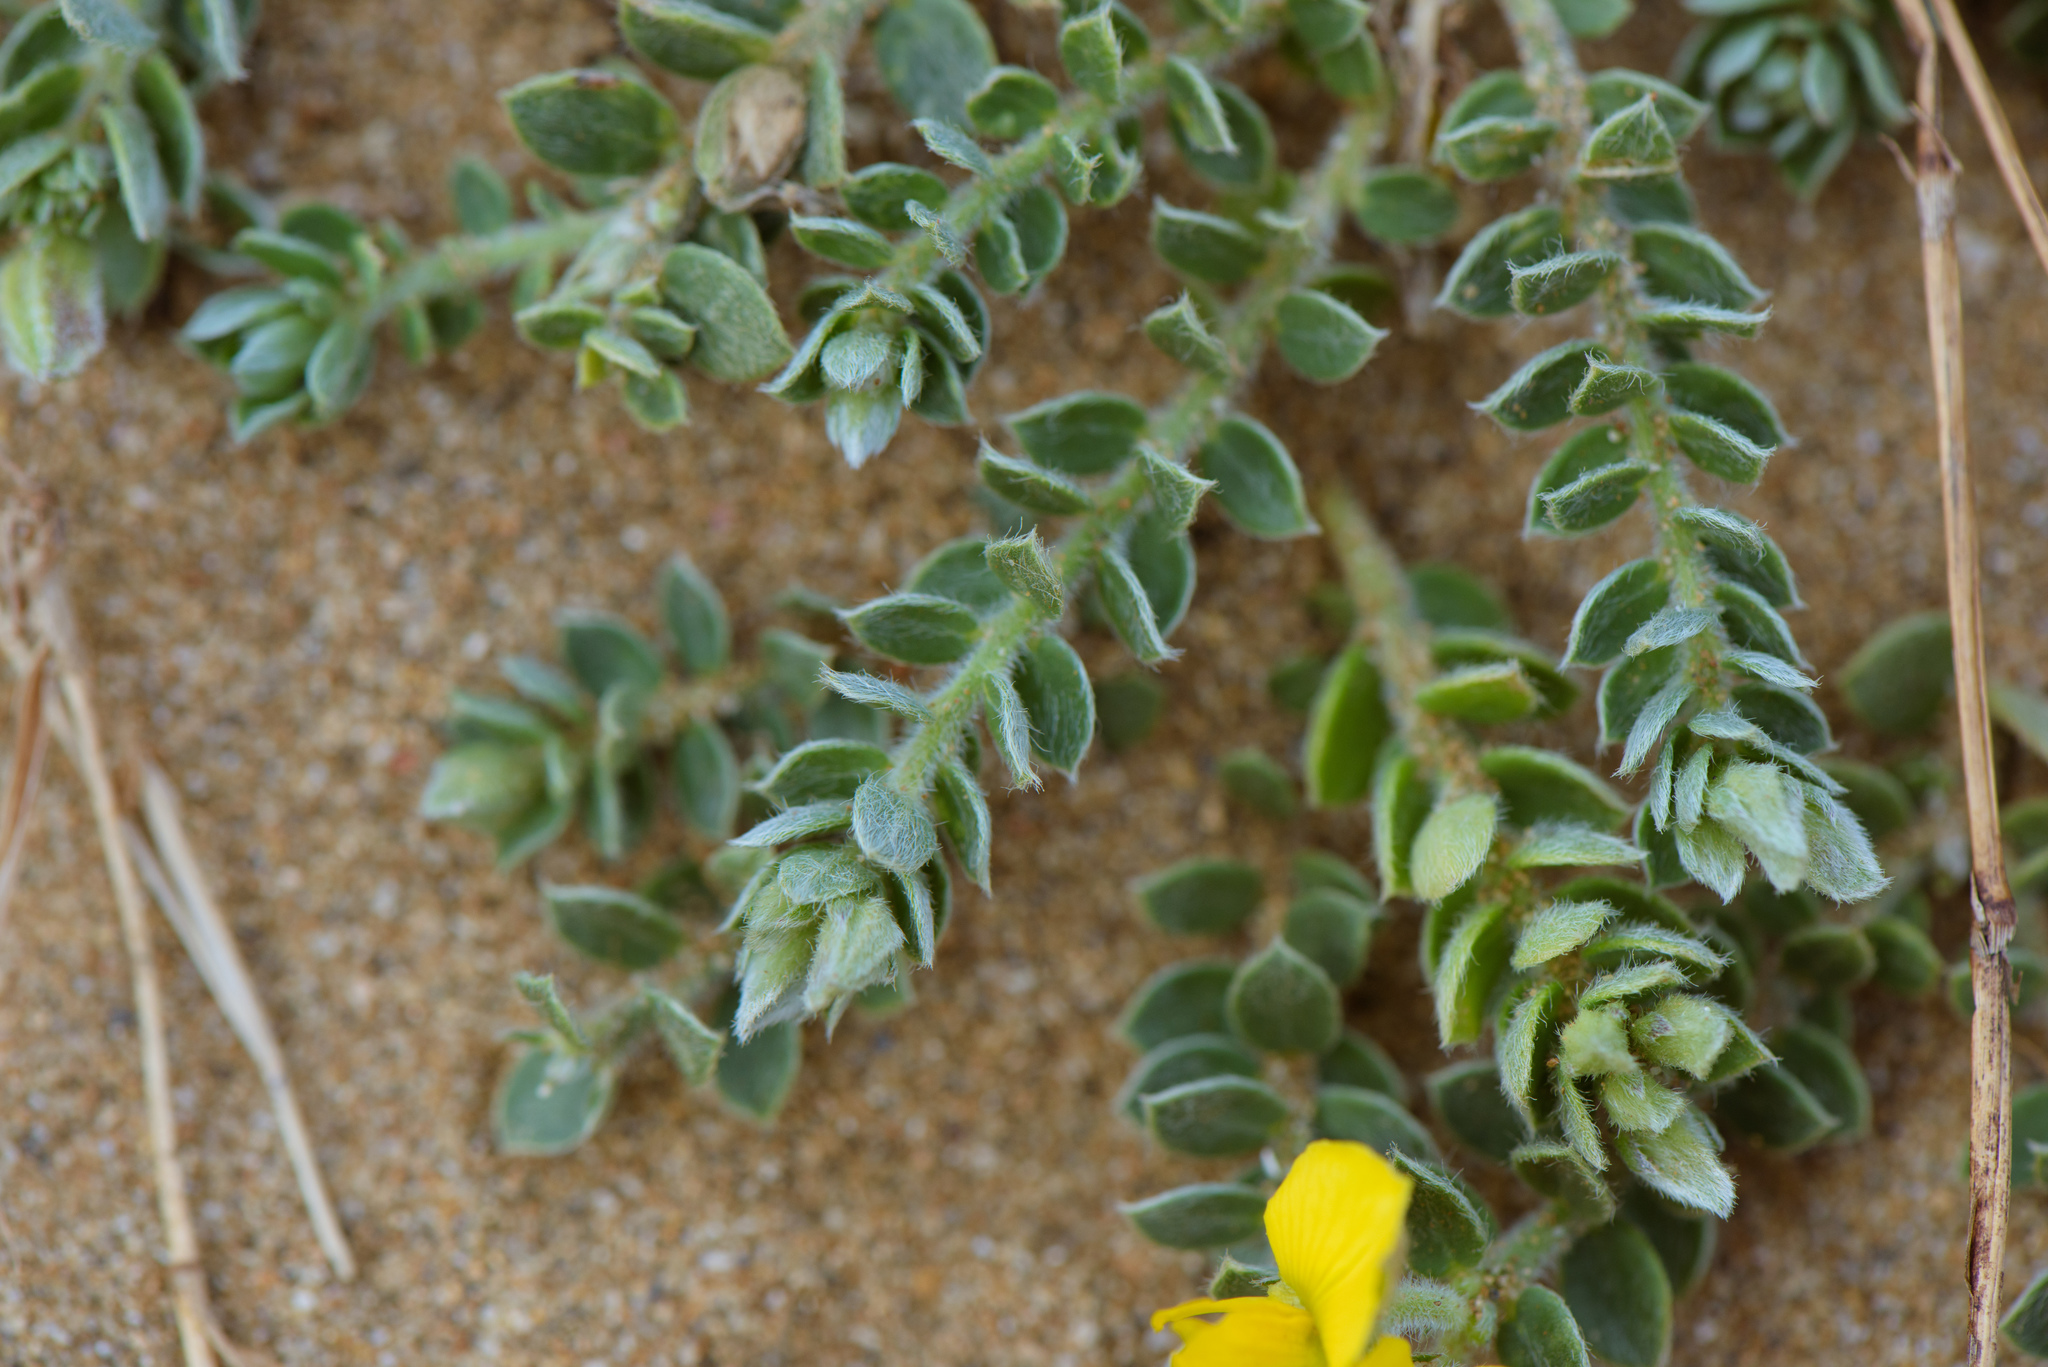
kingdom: Plantae
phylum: Tracheophyta
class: Magnoliopsida
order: Fabales
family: Fabaceae
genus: Crotalaria
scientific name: Crotalaria similis
